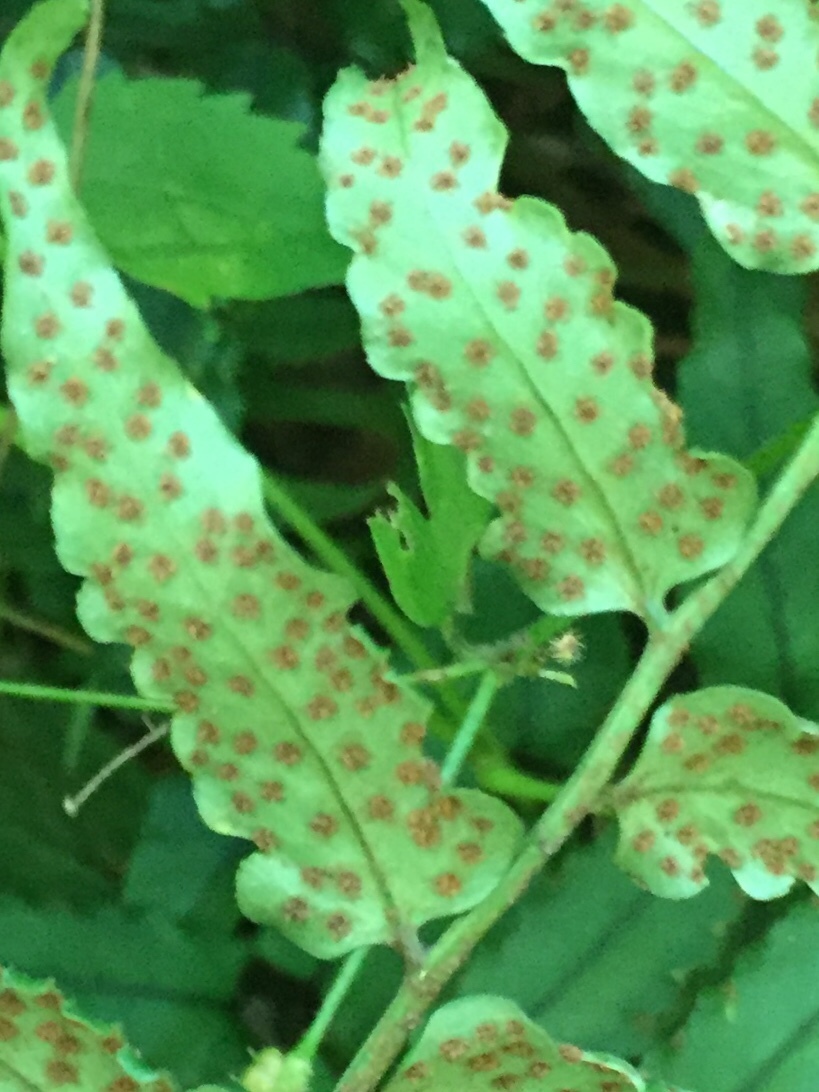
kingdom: Plantae
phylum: Tracheophyta
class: Polypodiopsida
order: Polypodiales
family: Dryopteridaceae
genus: Cyrtomium
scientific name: Cyrtomium fortunei
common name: Asian netvein hollyfern
